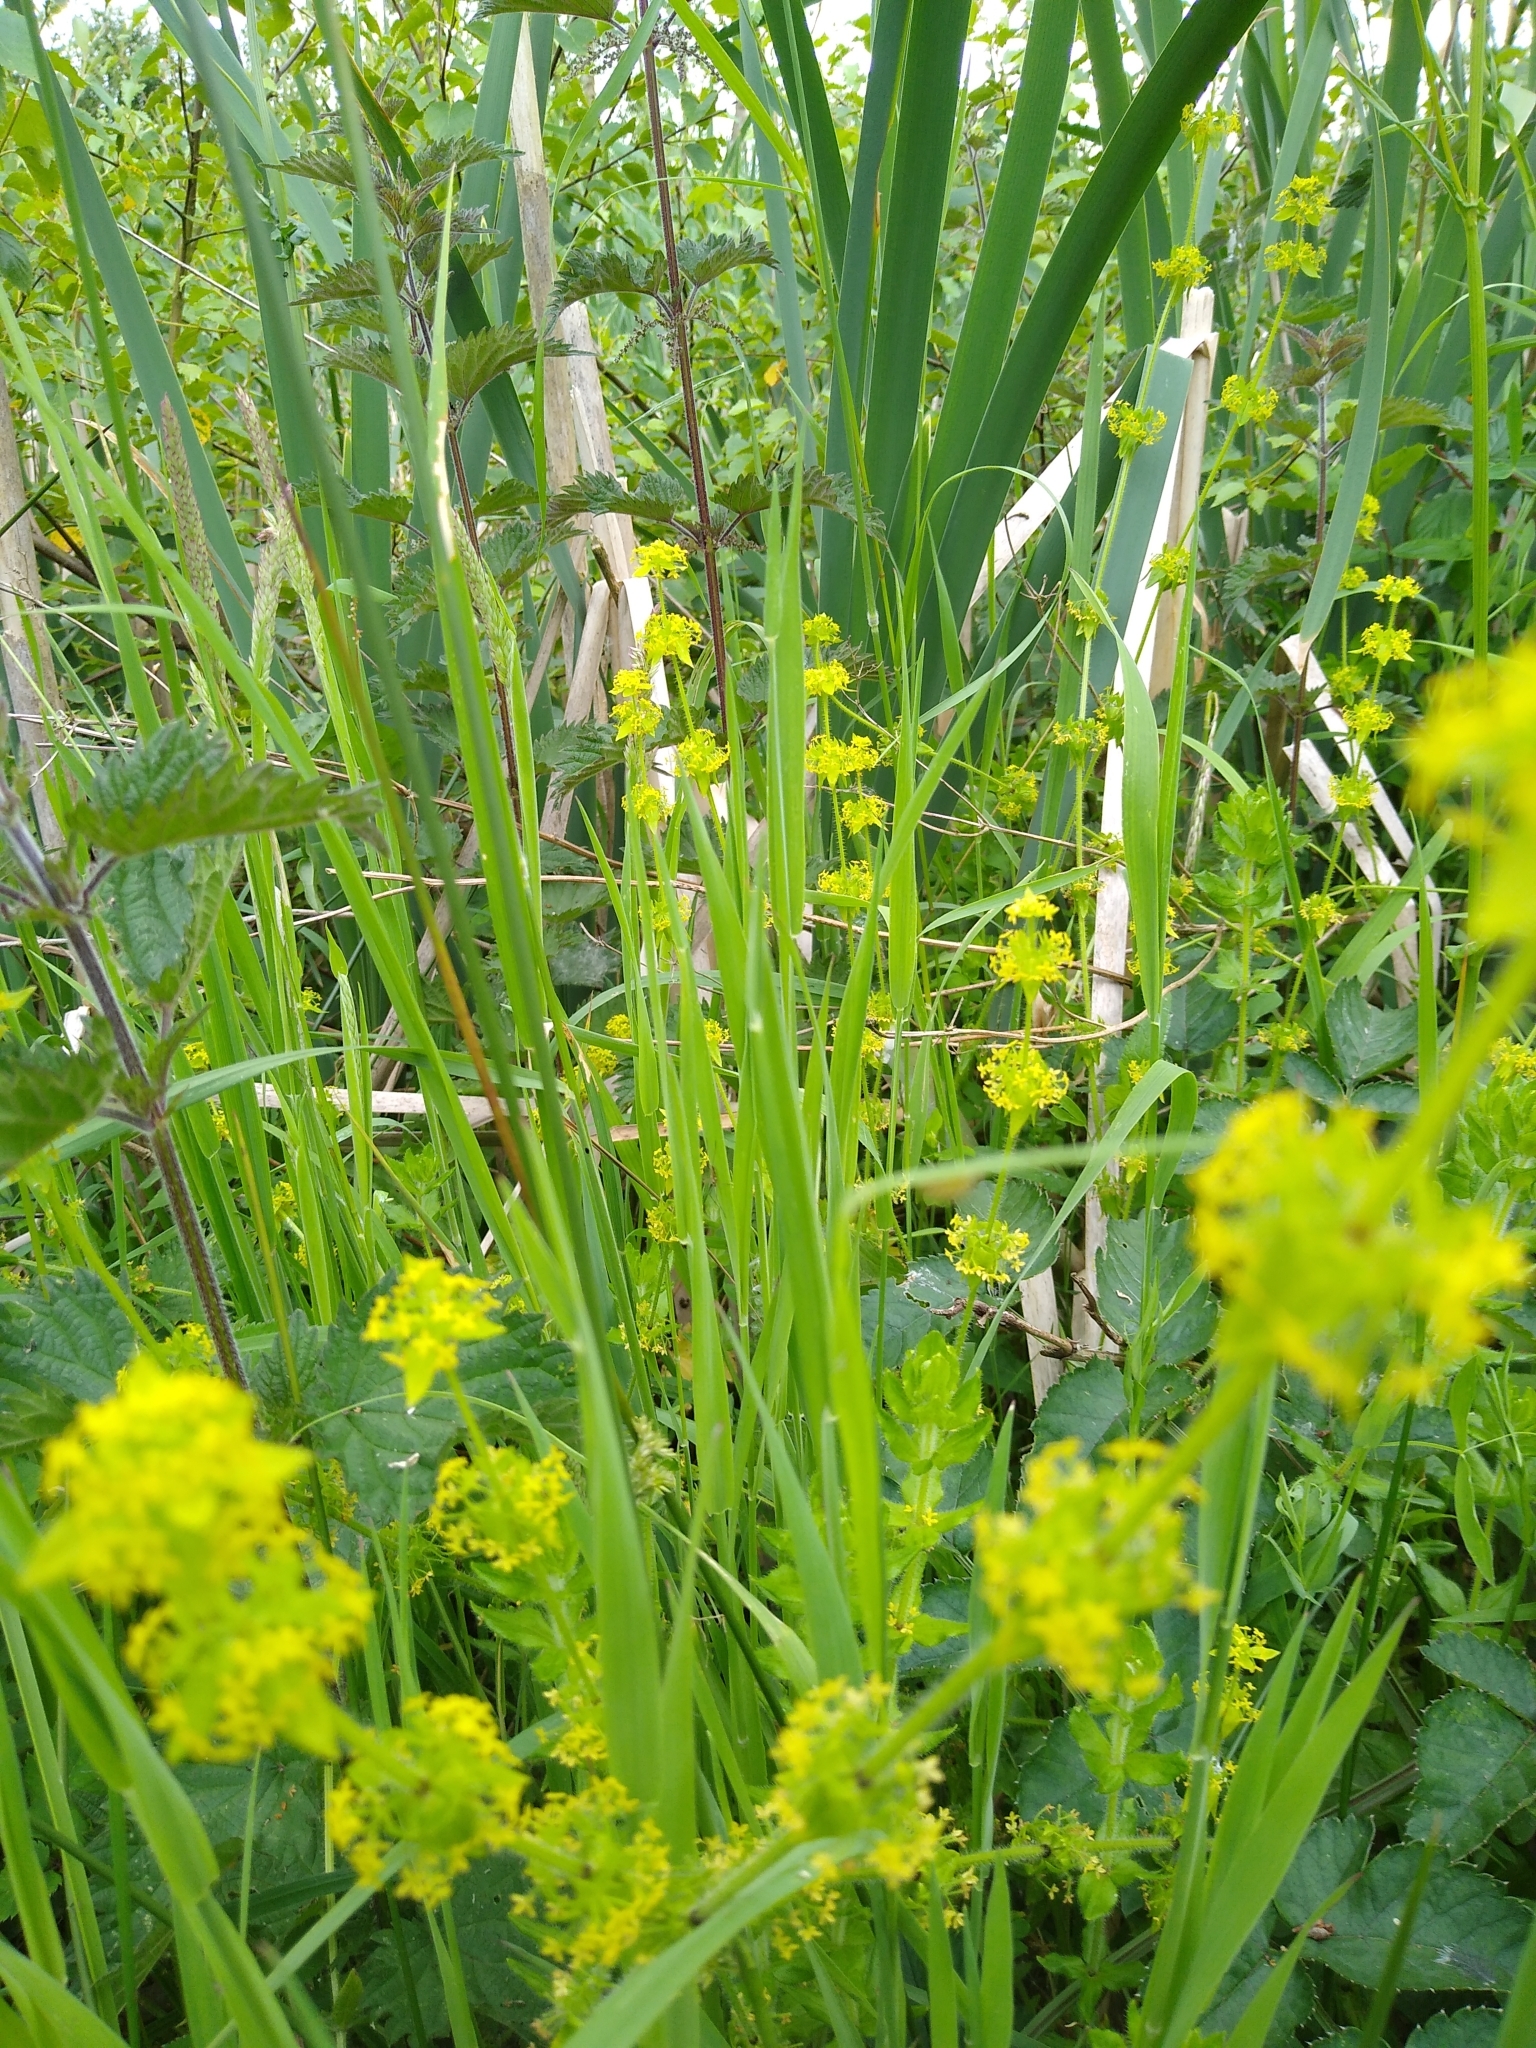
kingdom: Plantae
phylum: Tracheophyta
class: Magnoliopsida
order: Gentianales
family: Rubiaceae
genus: Cruciata
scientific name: Cruciata laevipes
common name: Crosswort
